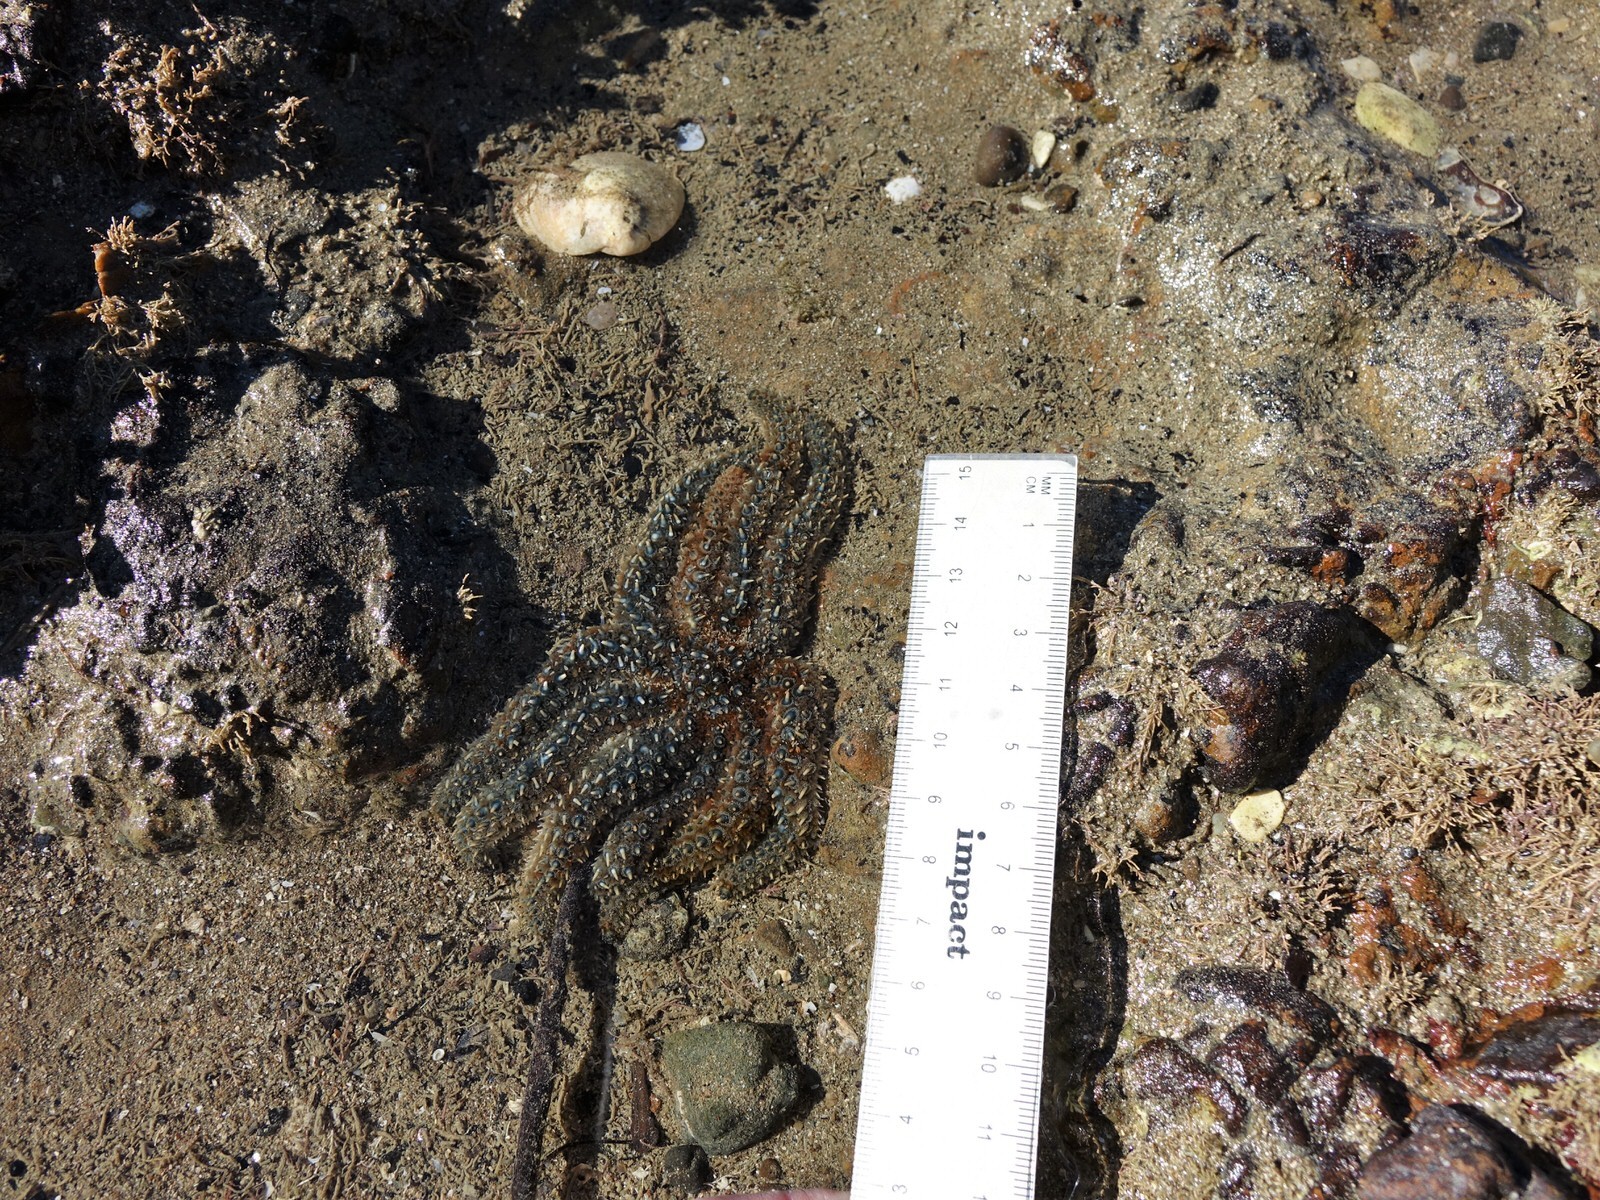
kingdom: Animalia
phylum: Echinodermata
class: Asteroidea
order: Forcipulatida
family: Asteriidae
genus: Coscinasterias
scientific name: Coscinasterias muricata
